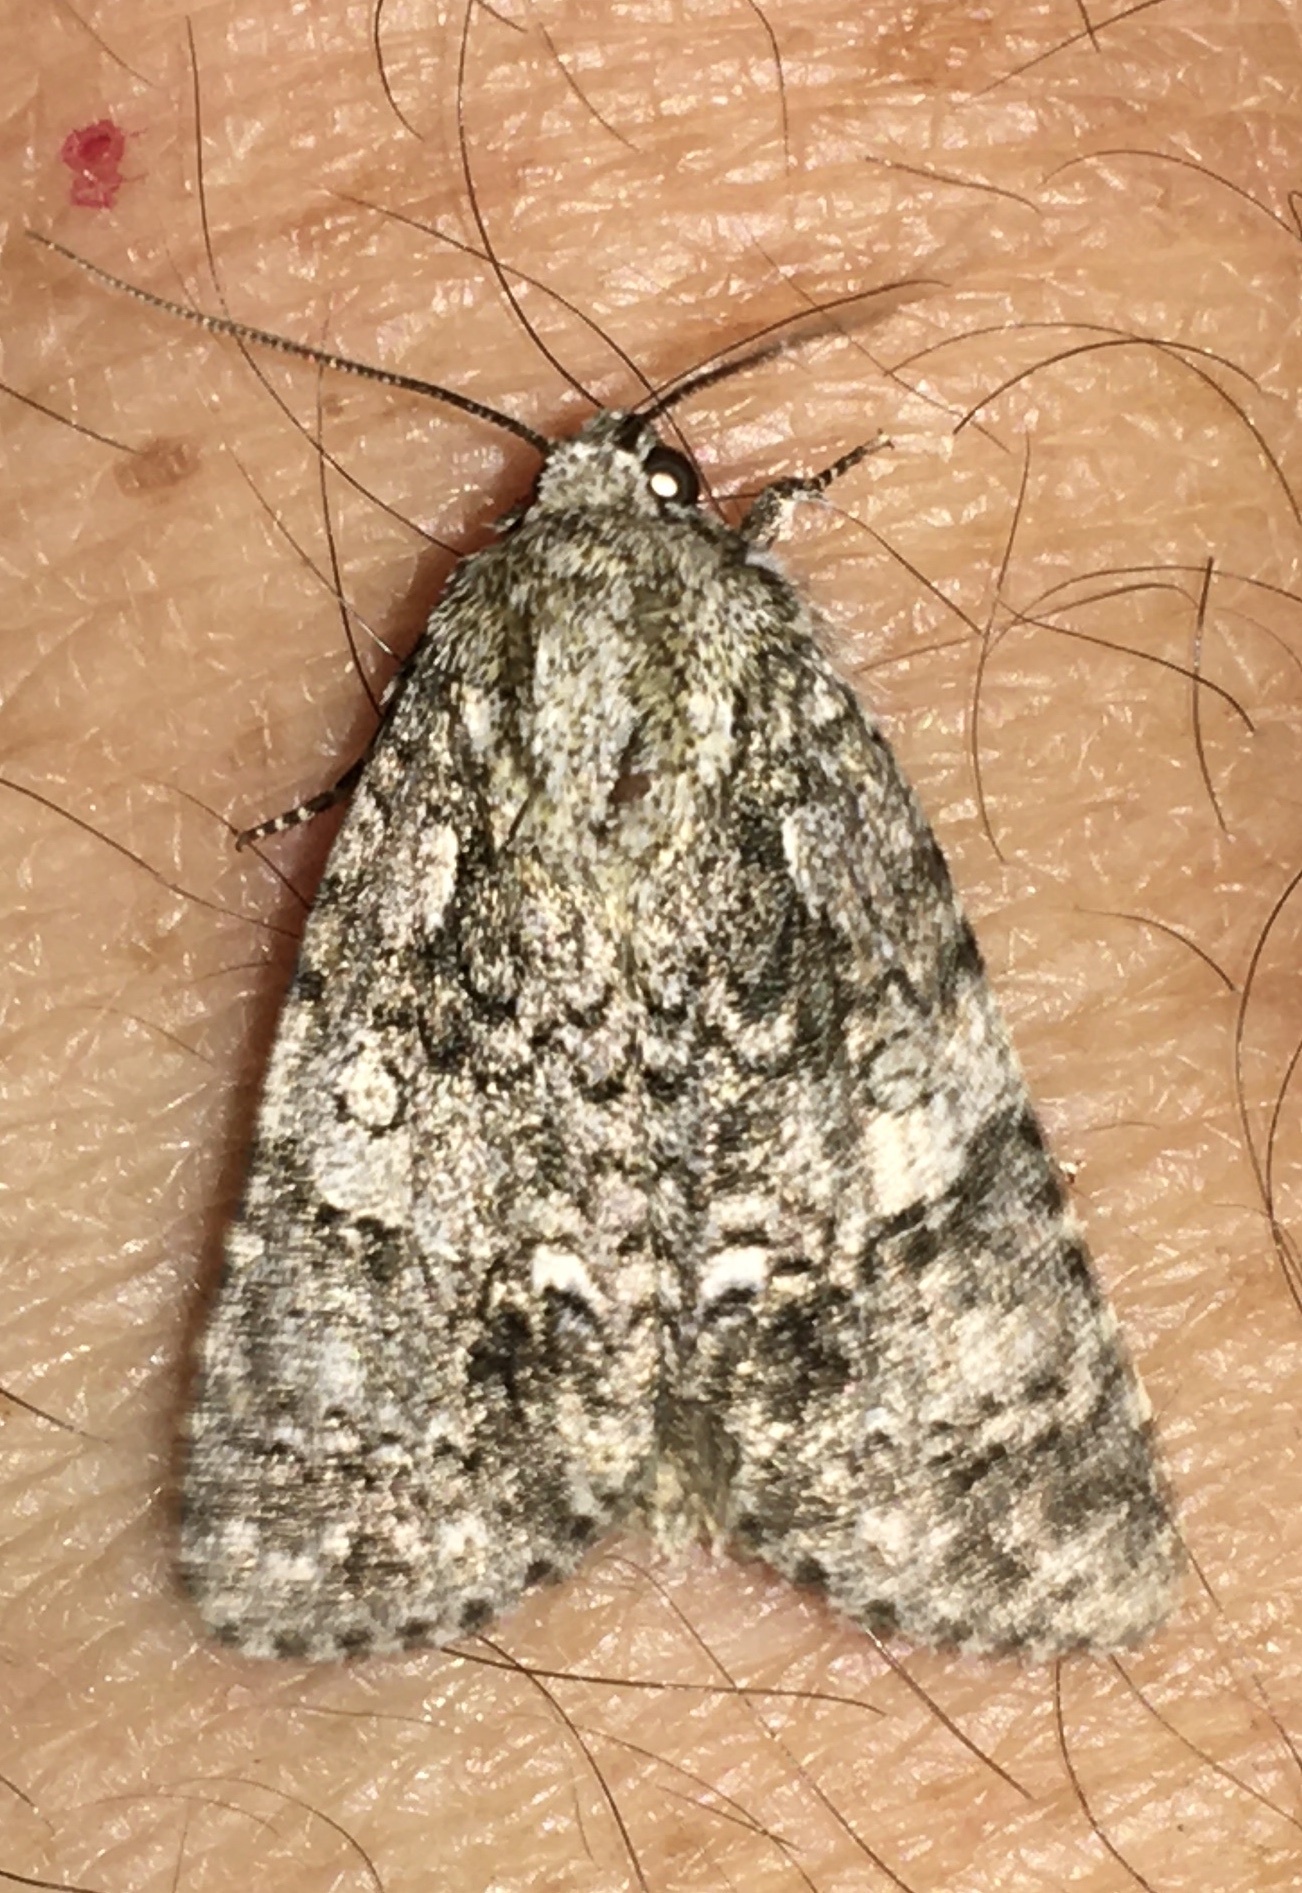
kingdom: Animalia
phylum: Arthropoda
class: Insecta
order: Lepidoptera
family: Noctuidae
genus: Acronicta
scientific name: Acronicta rumicis
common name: Knot grass
